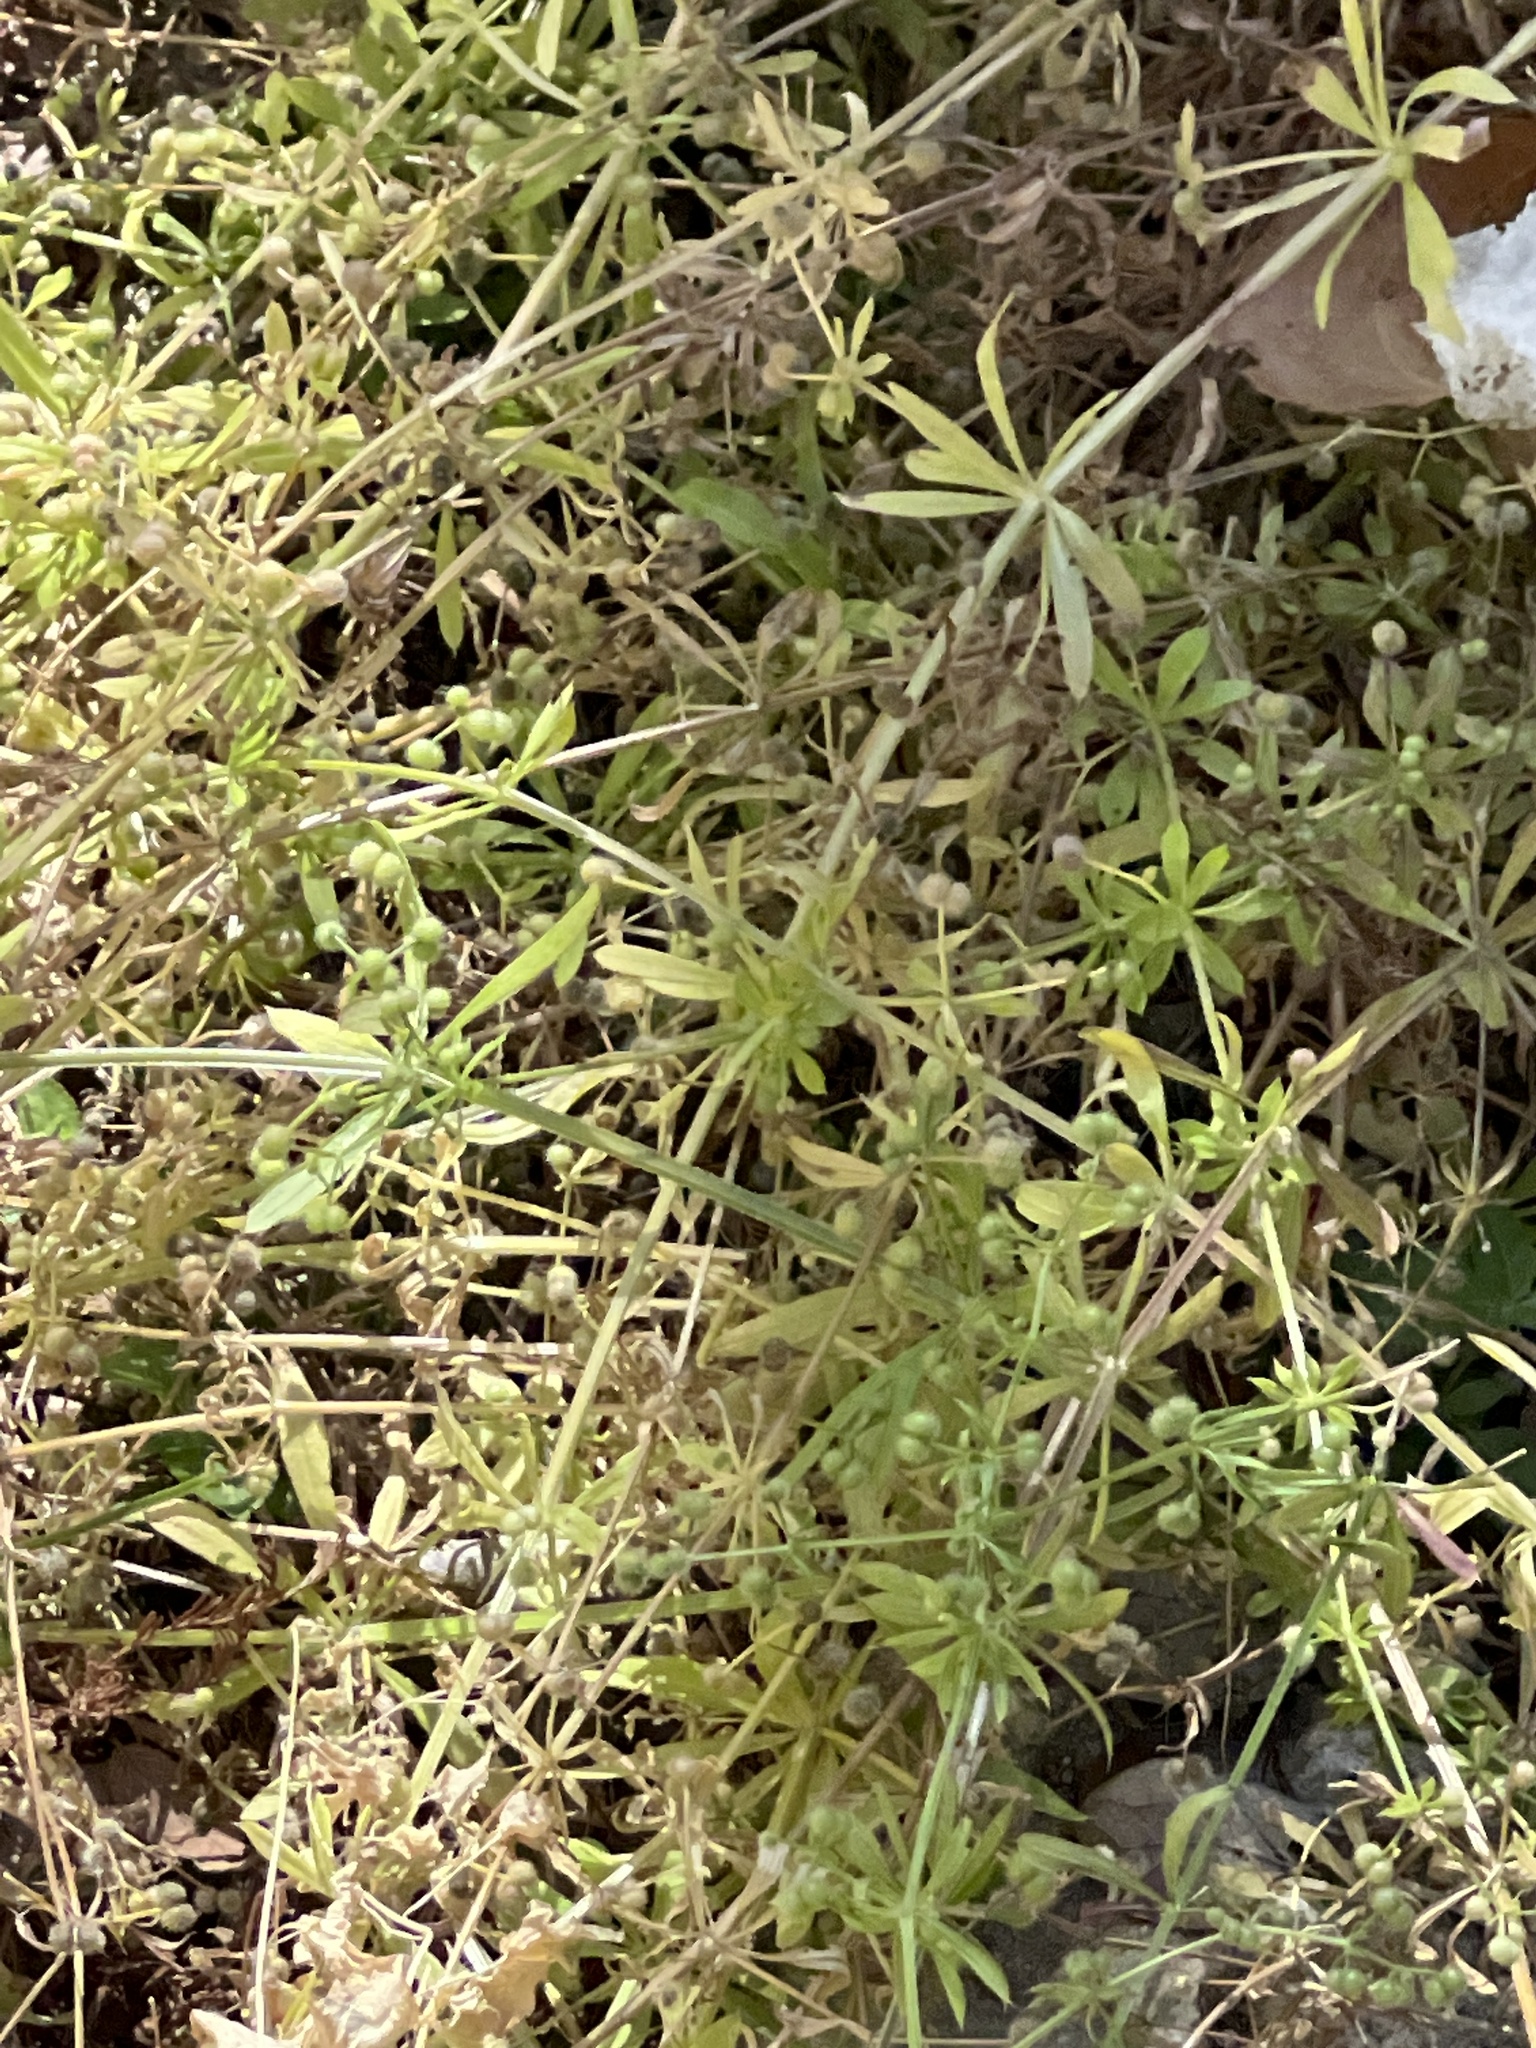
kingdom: Plantae
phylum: Tracheophyta
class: Magnoliopsida
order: Gentianales
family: Rubiaceae
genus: Galium
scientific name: Galium aparine
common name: Cleavers
